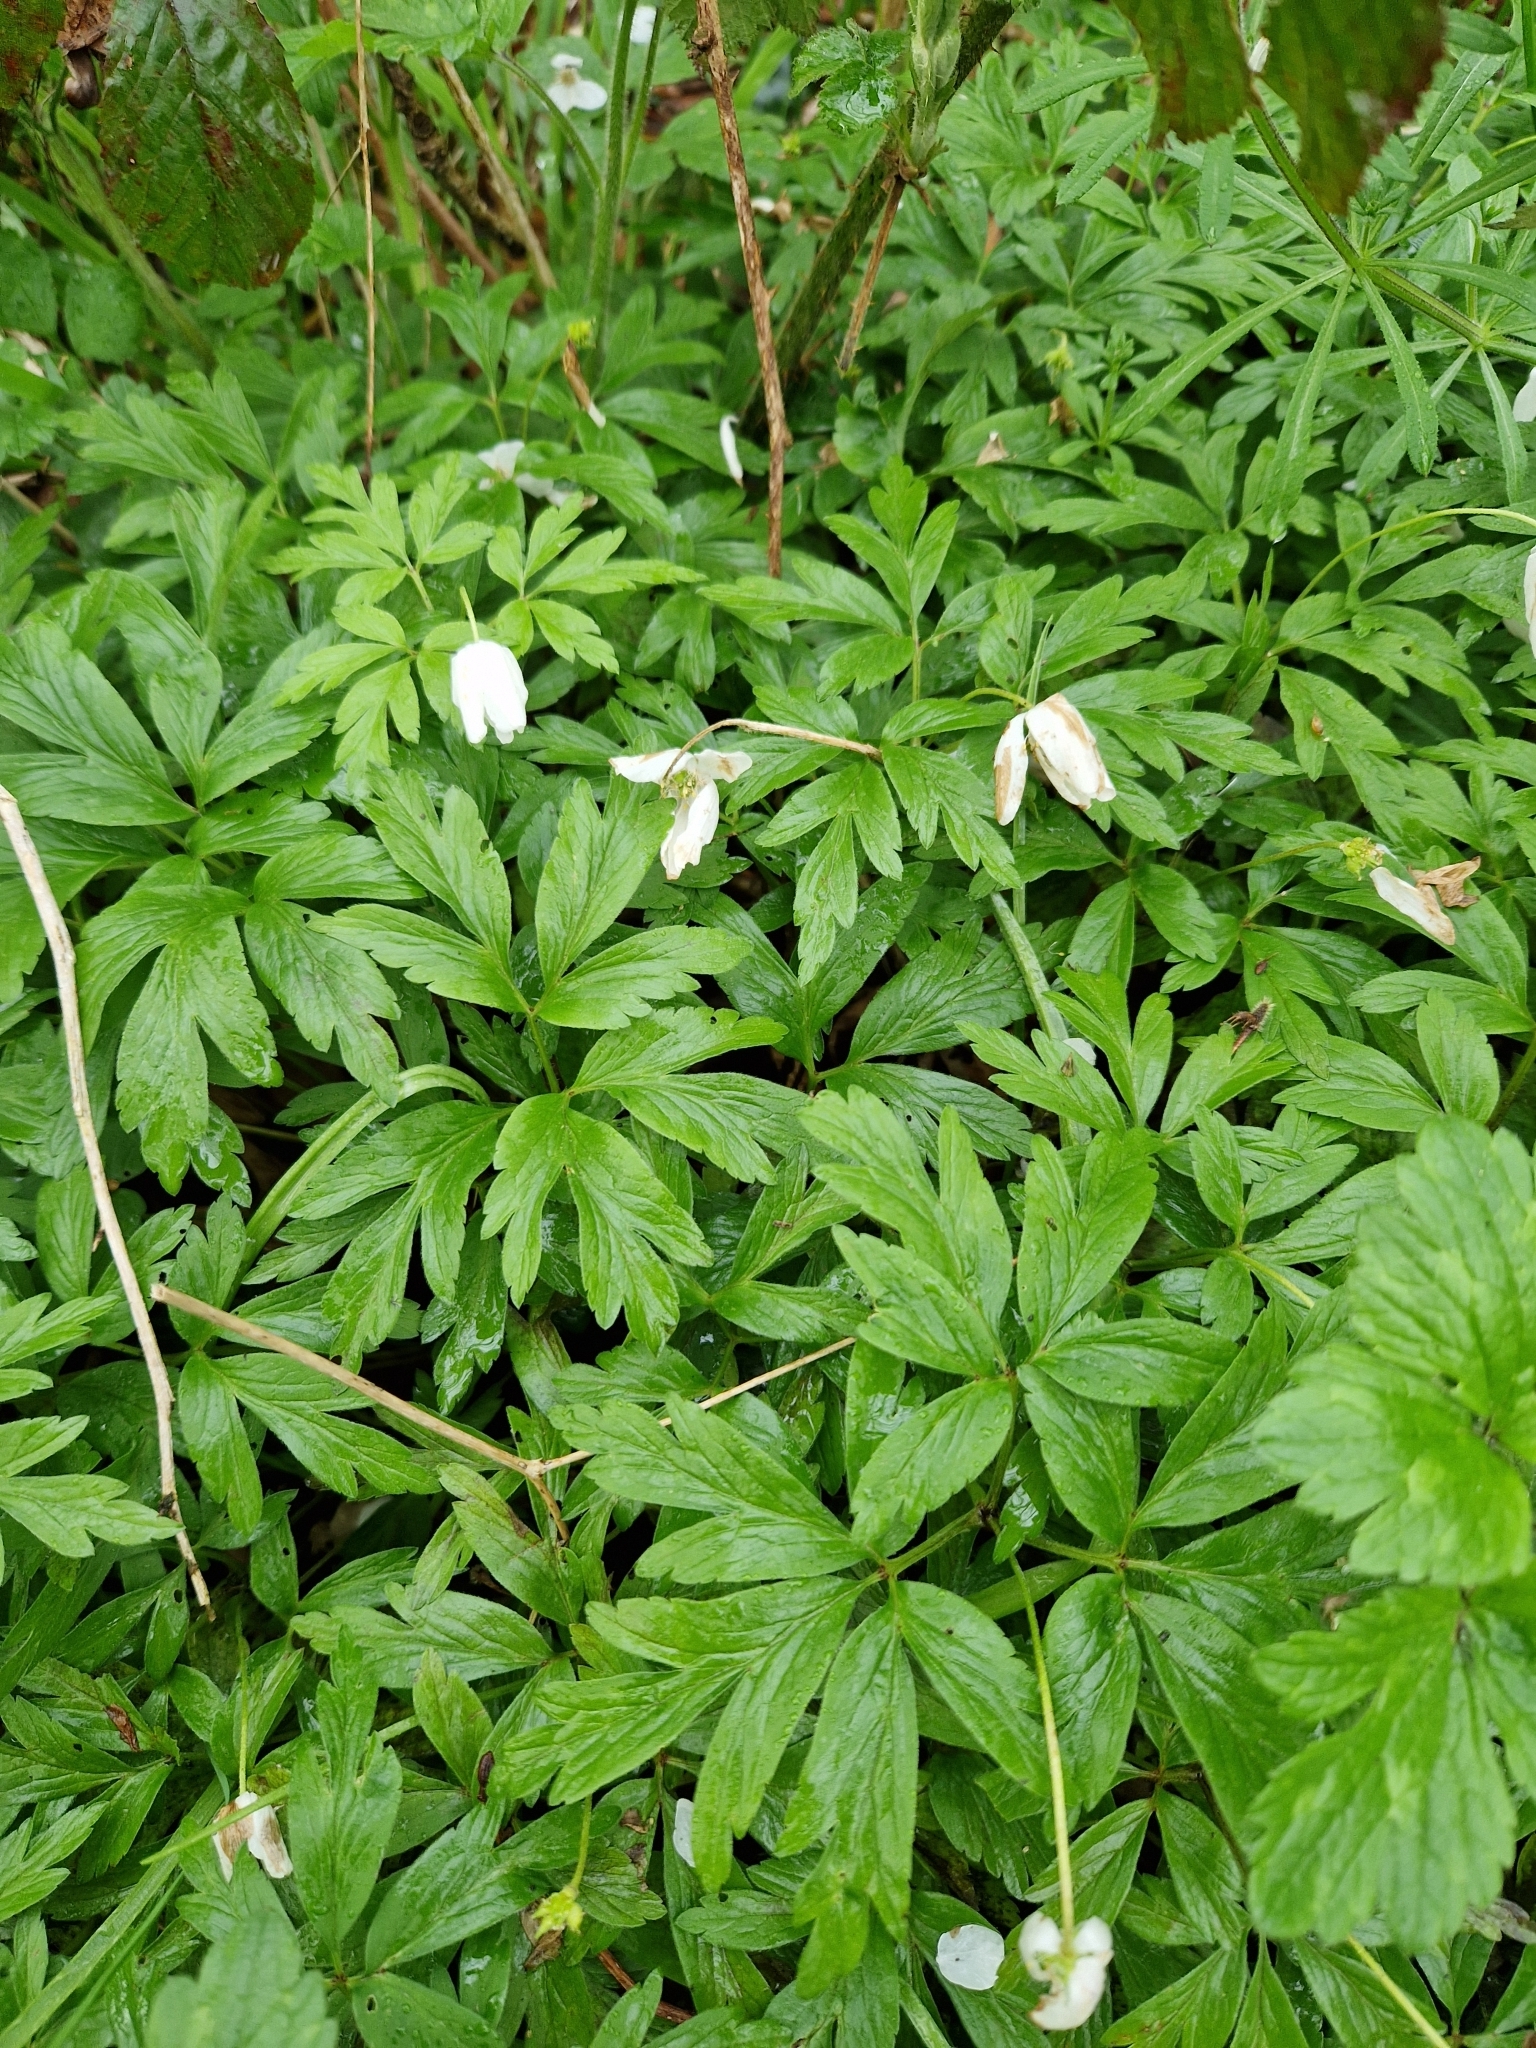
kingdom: Plantae
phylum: Tracheophyta
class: Magnoliopsida
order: Ranunculales
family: Ranunculaceae
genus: Anemone
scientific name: Anemone nemorosa
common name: Wood anemone
